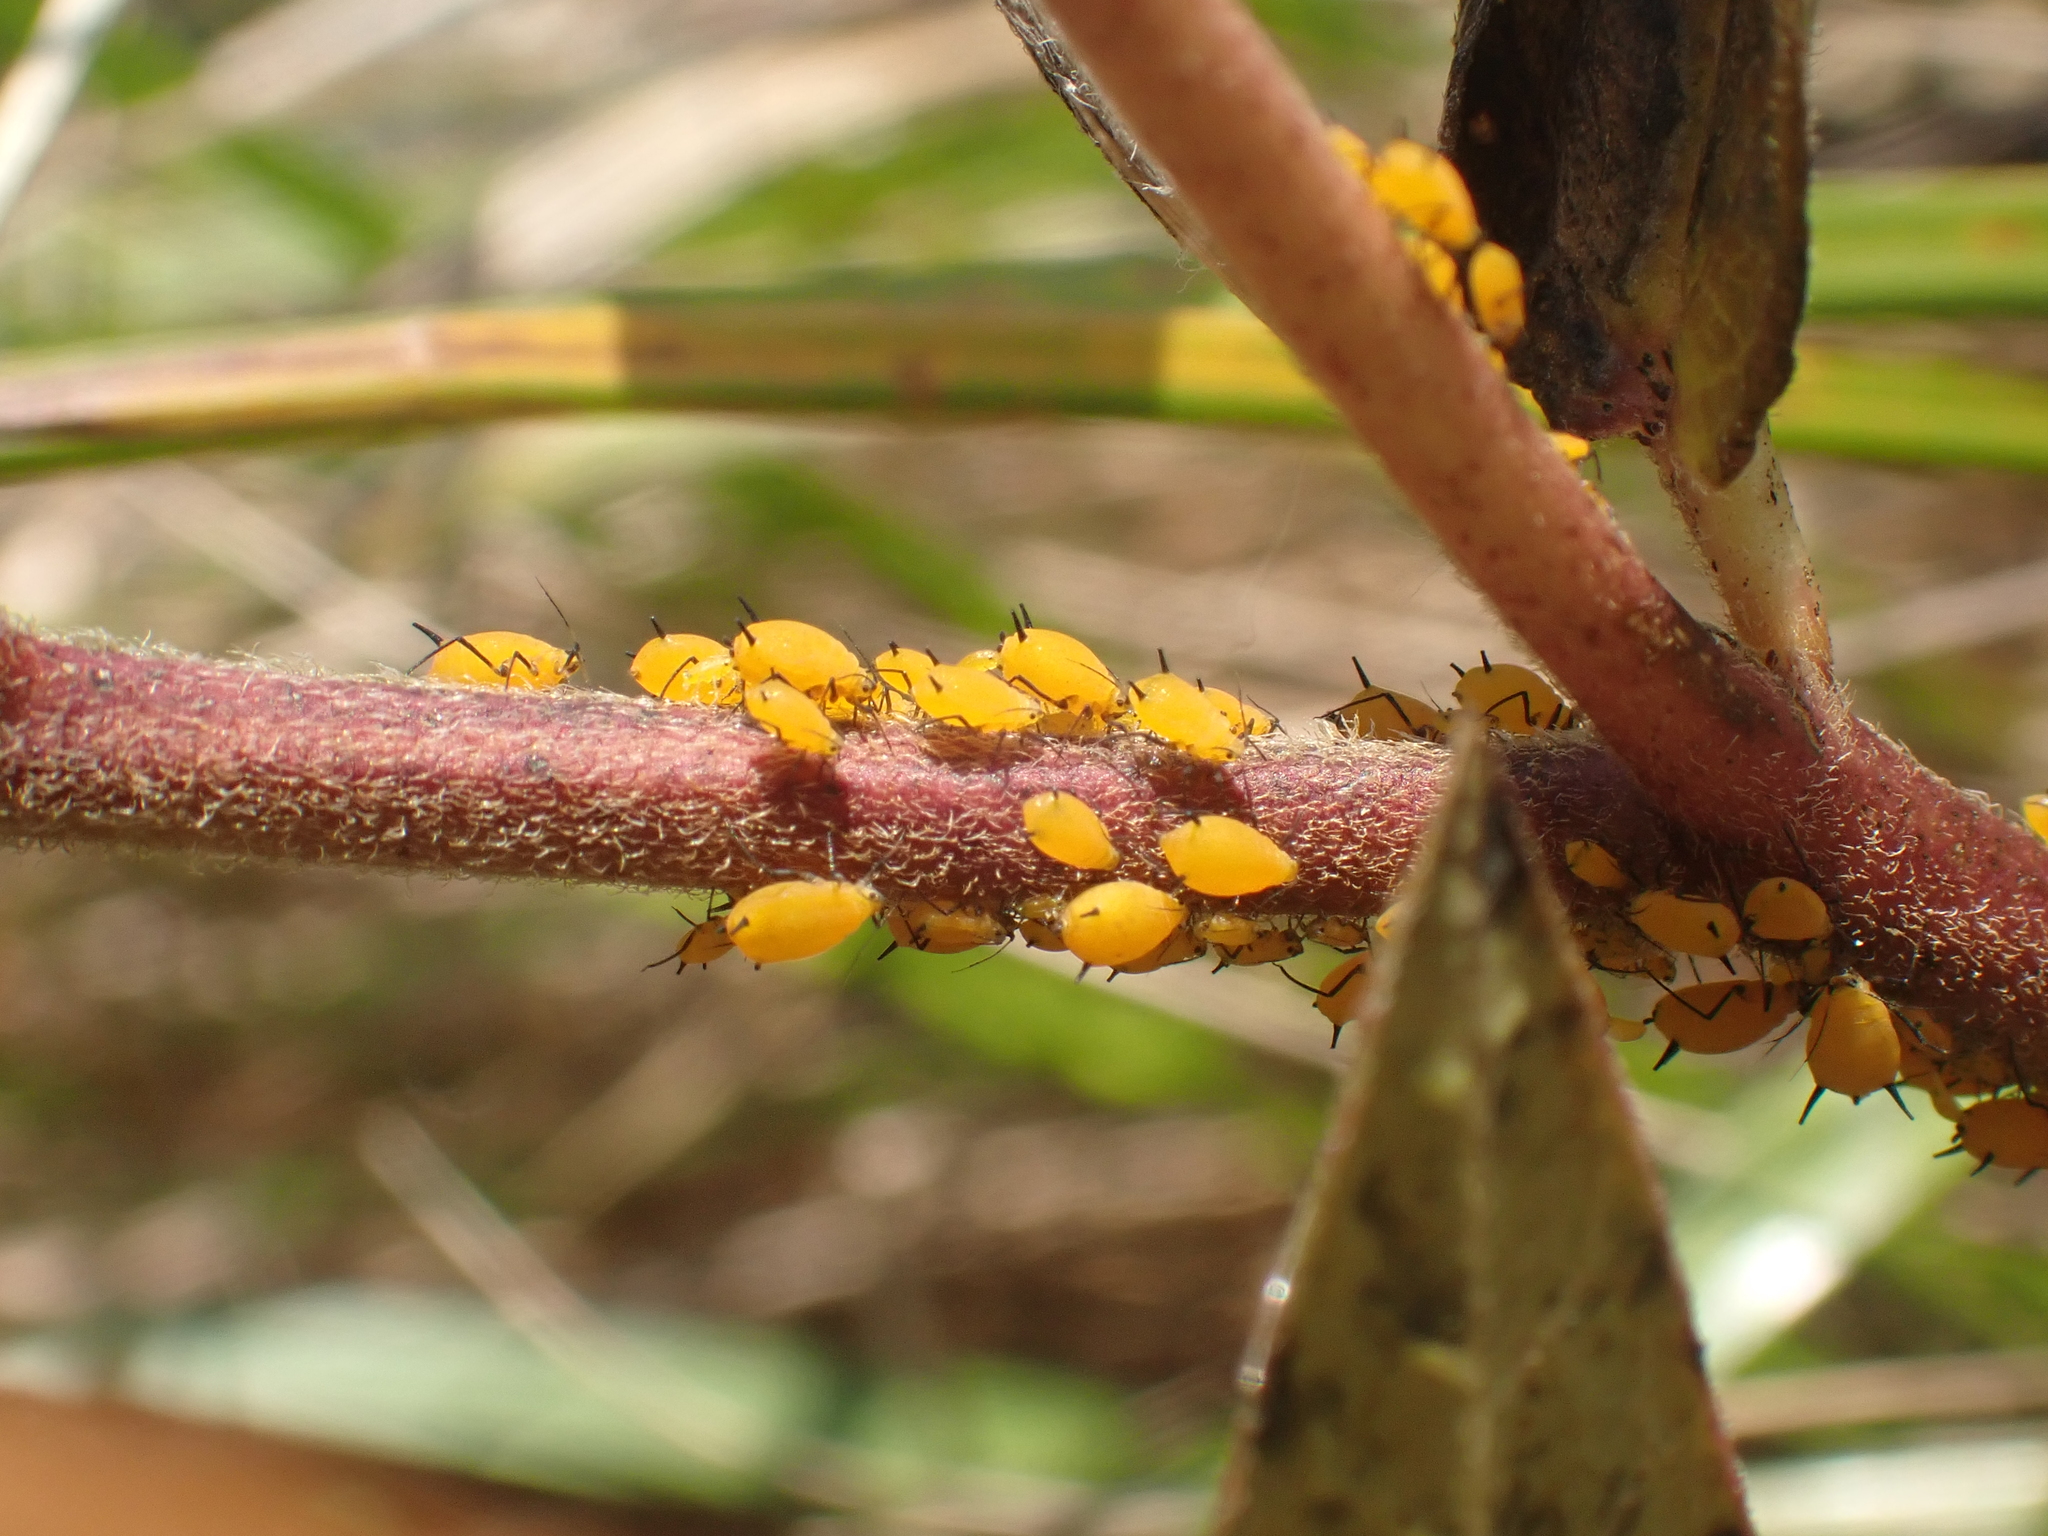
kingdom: Animalia
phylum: Arthropoda
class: Insecta
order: Hemiptera
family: Aphididae
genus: Aphis
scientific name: Aphis nerii
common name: Oleander aphid
